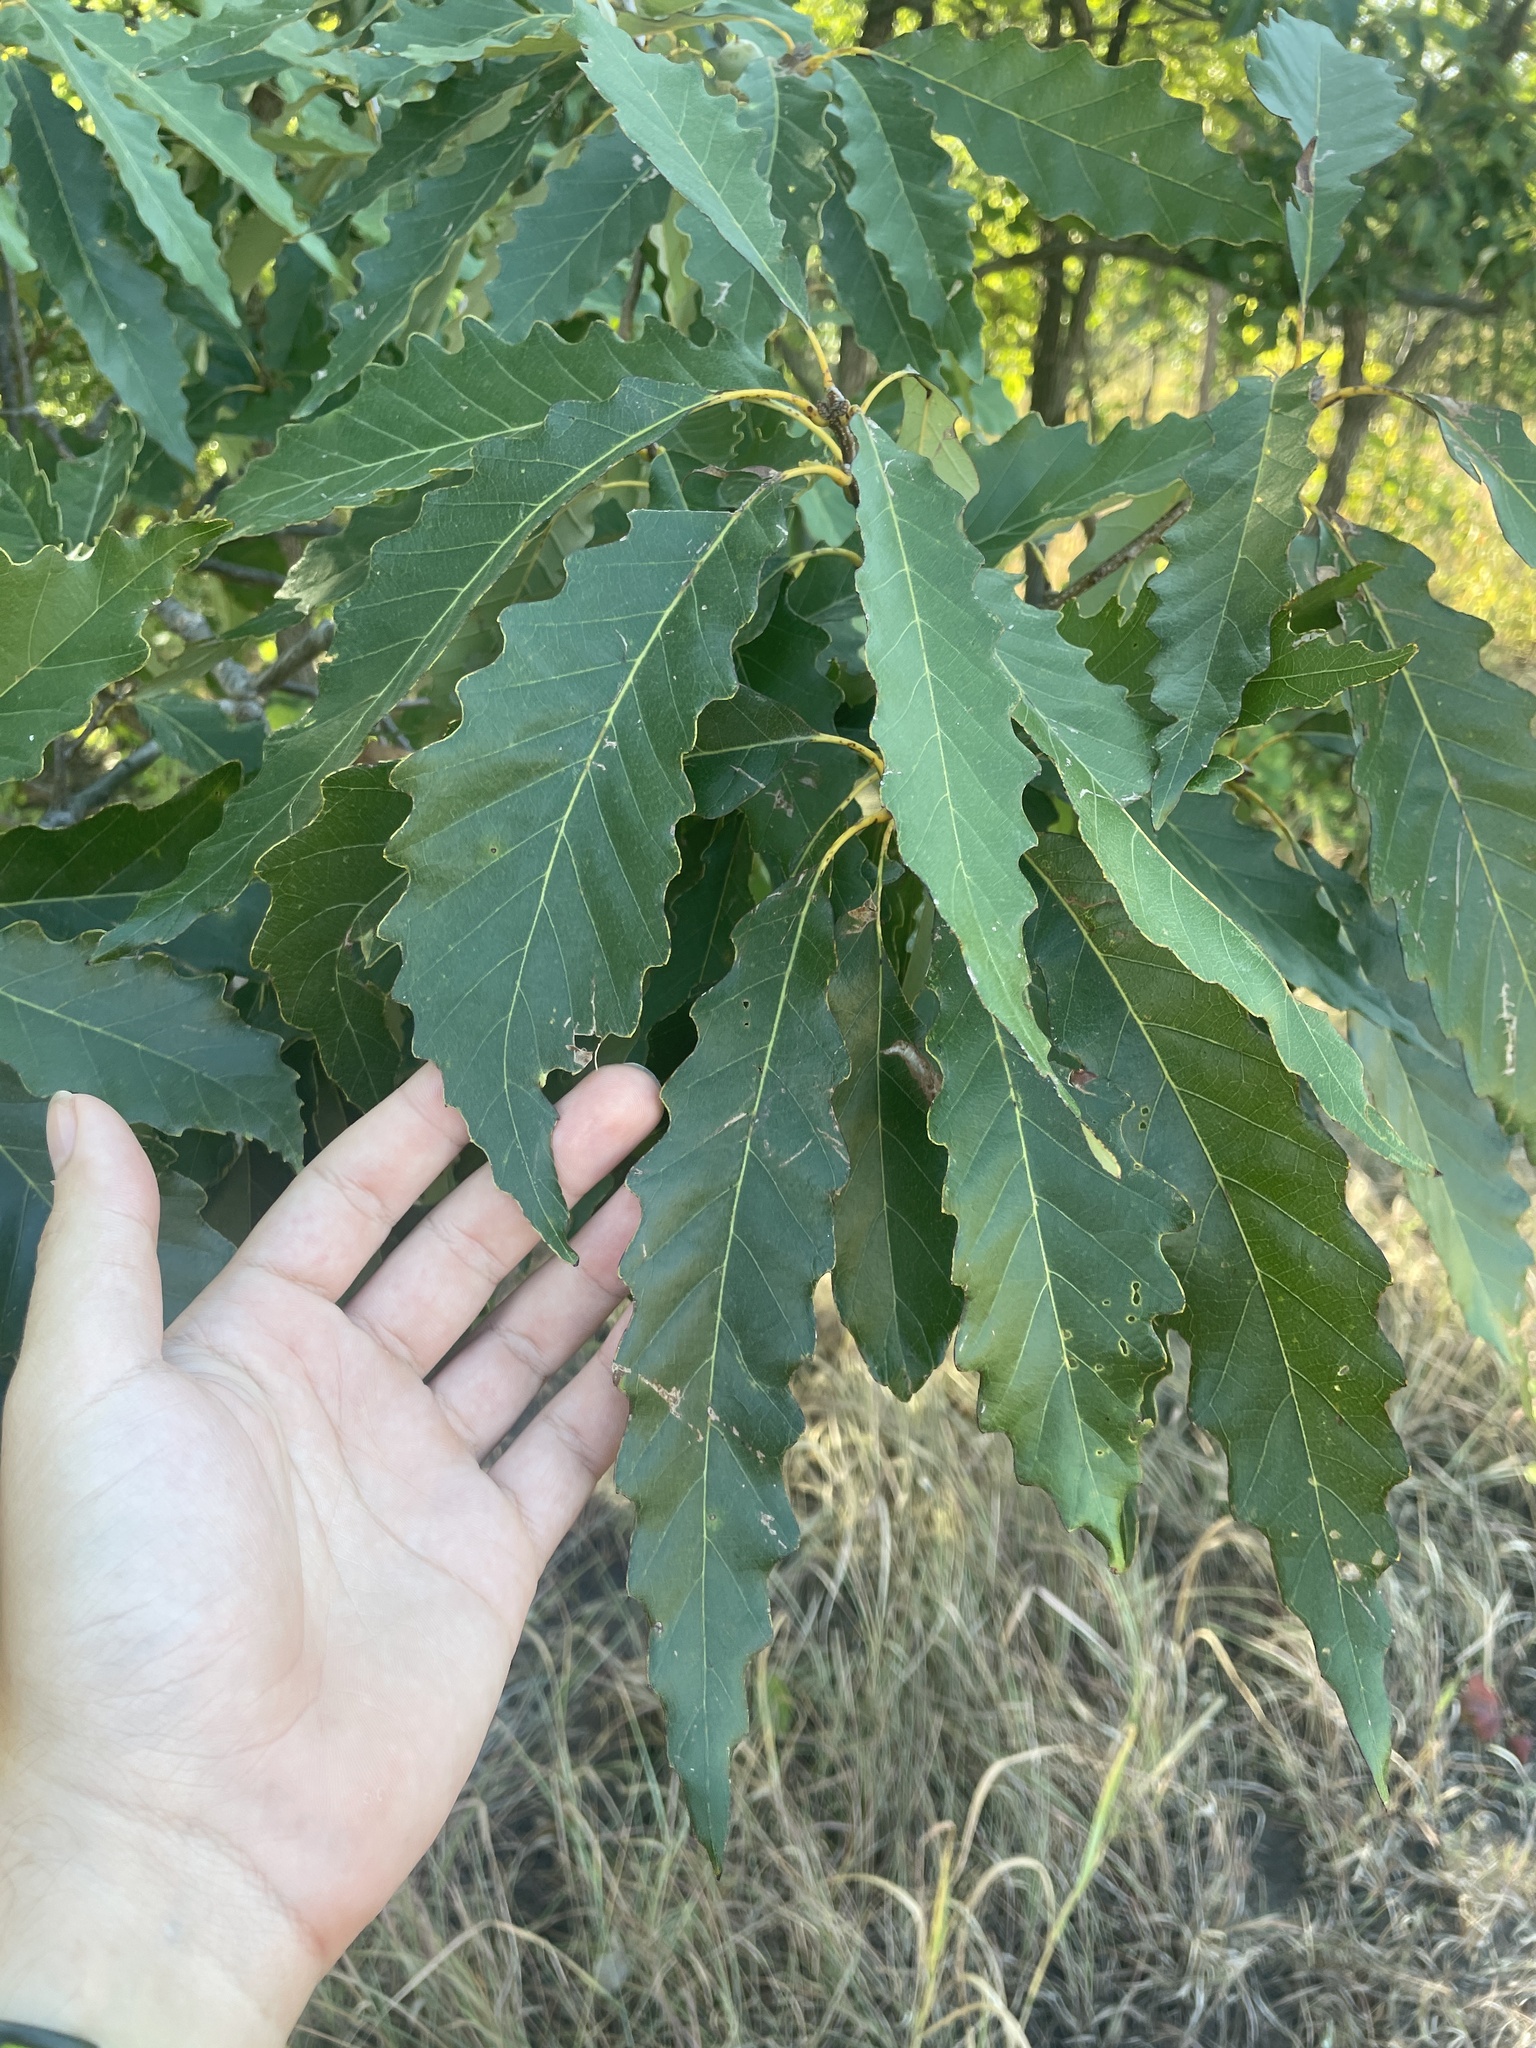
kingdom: Plantae
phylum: Tracheophyta
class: Magnoliopsida
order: Fagales
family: Fagaceae
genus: Quercus
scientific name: Quercus muehlenbergii
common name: Chinkapin oak
